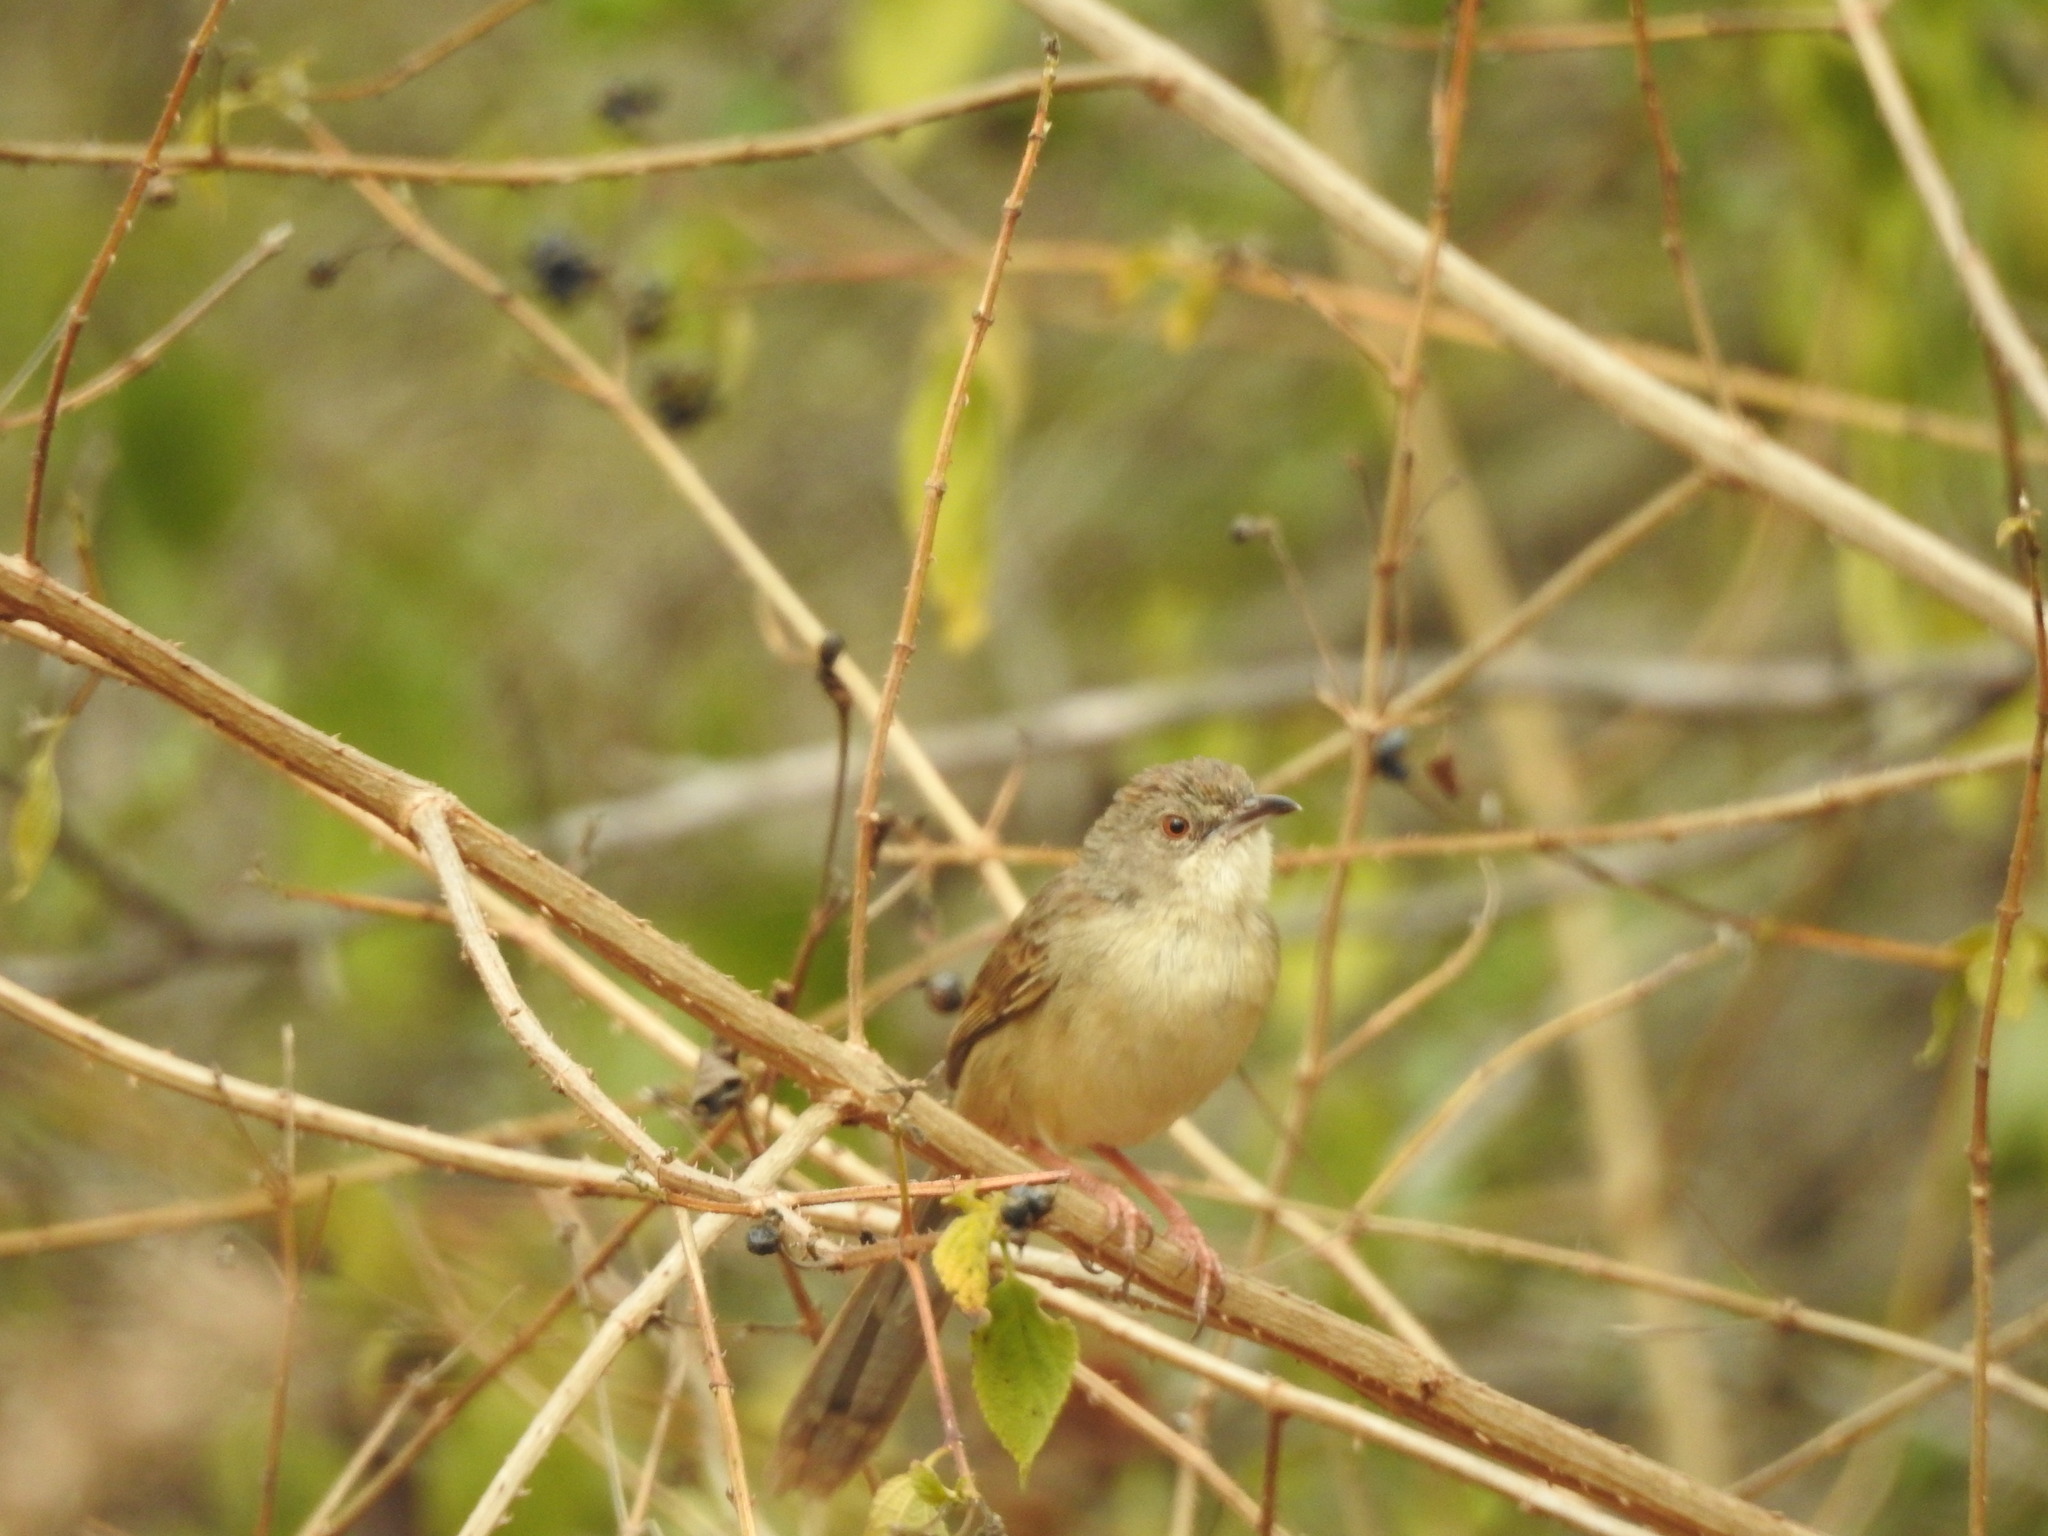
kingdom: Animalia
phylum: Chordata
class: Aves
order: Passeriformes
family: Cisticolidae
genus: Prinia
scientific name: Prinia sylvatica
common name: Jungle prinia
